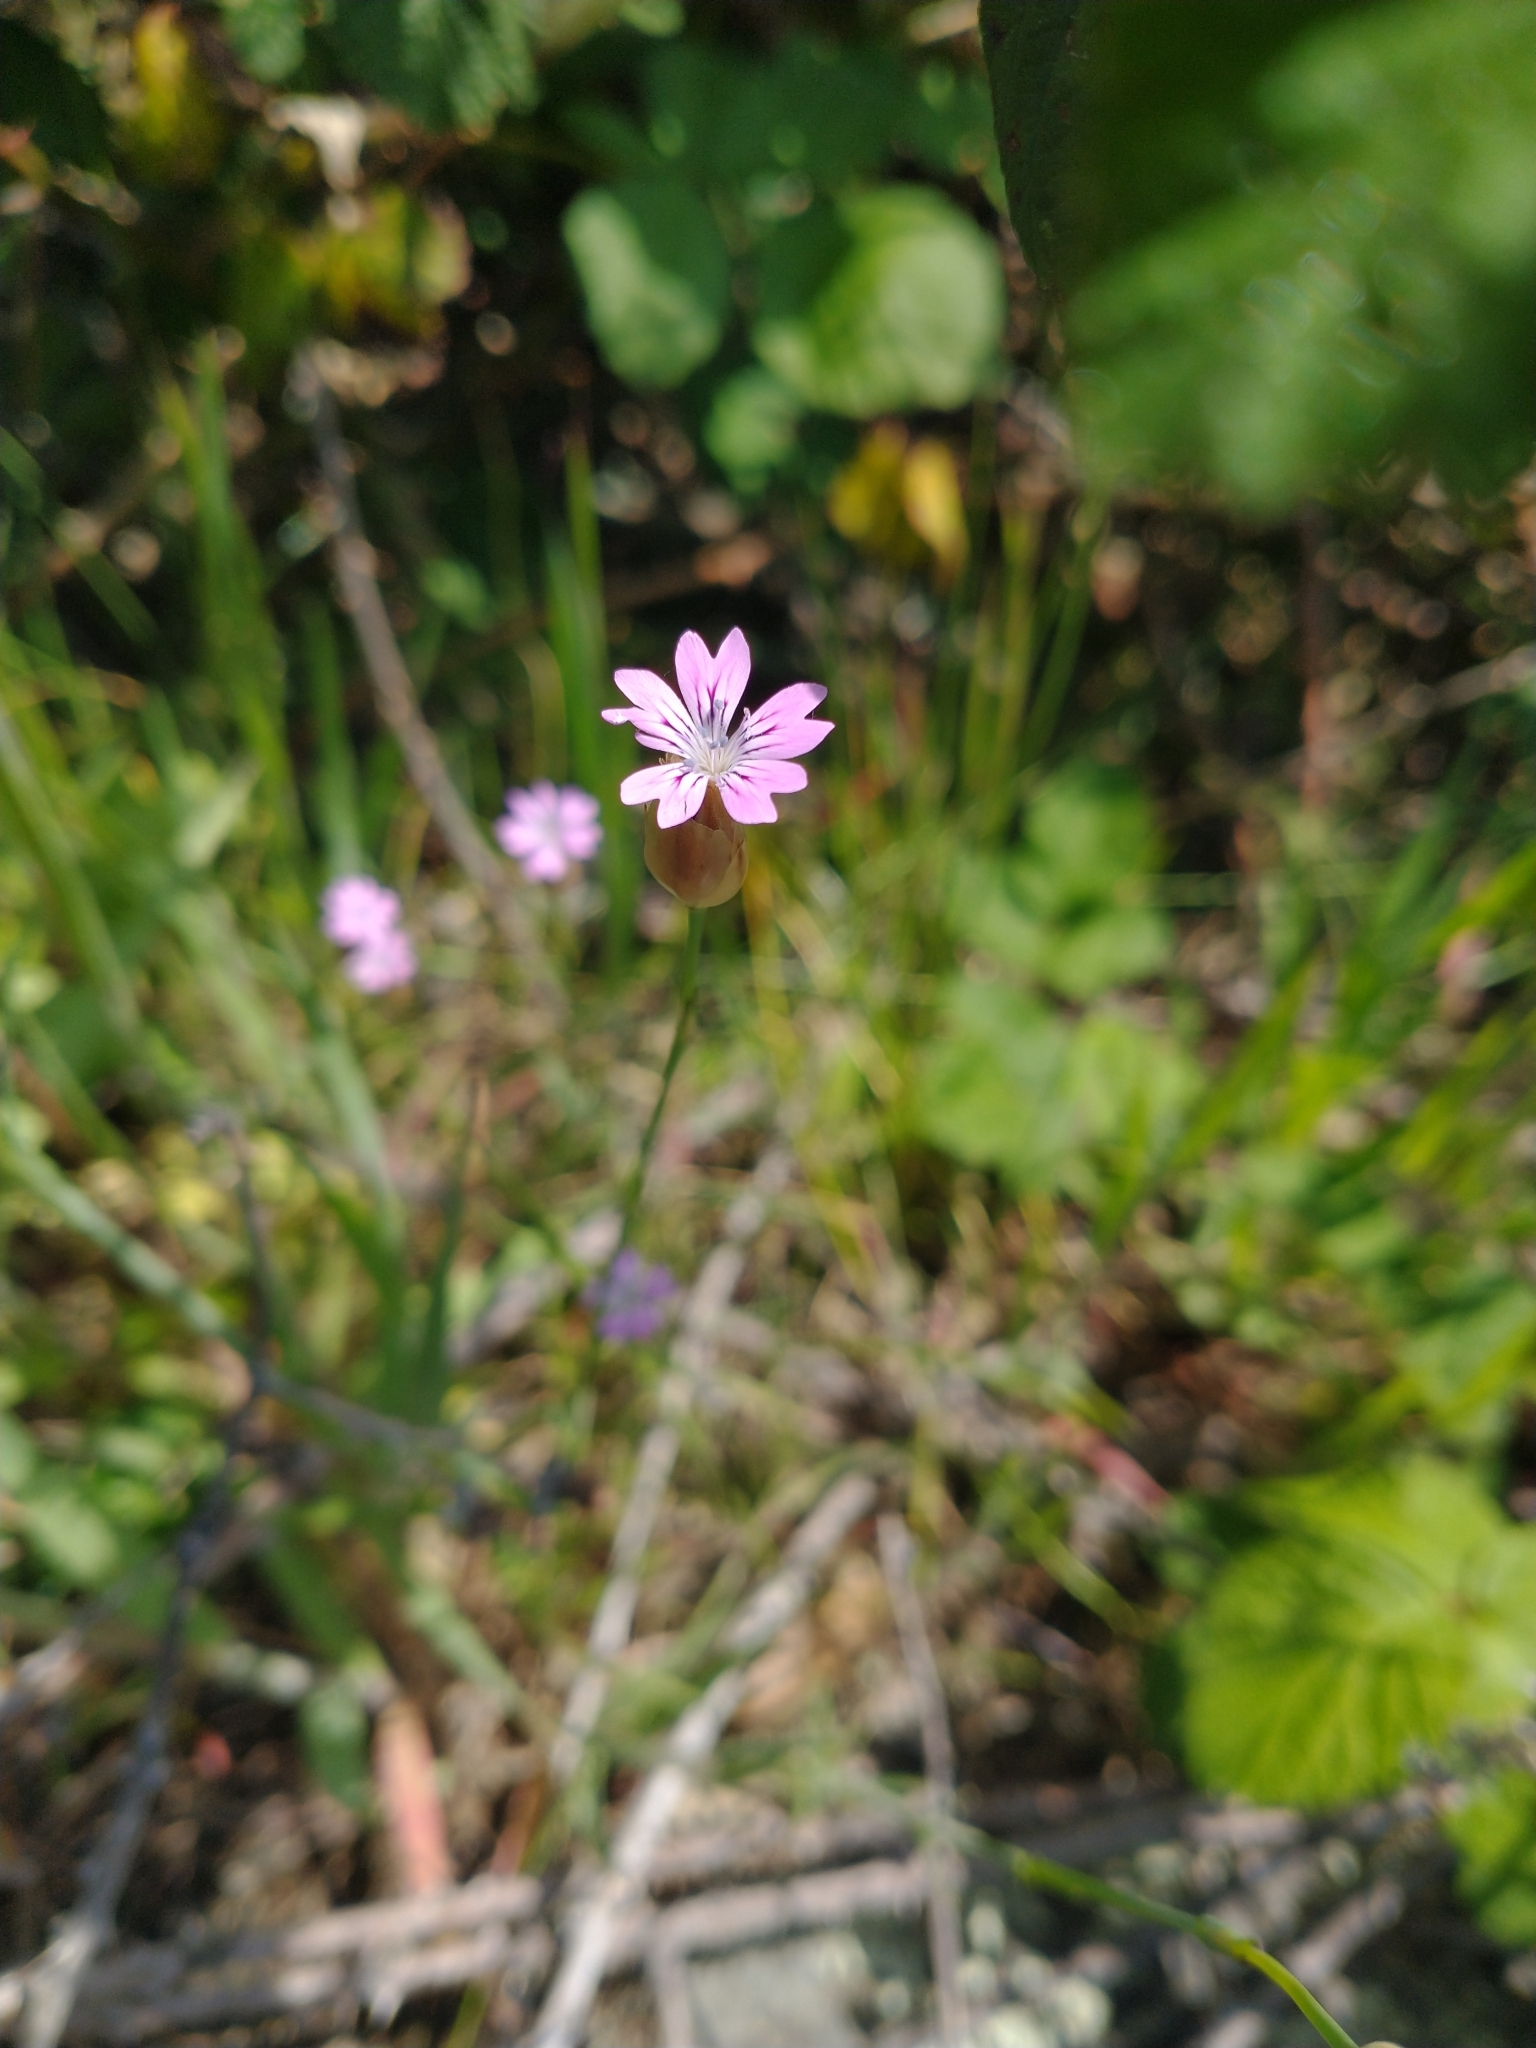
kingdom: Plantae
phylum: Tracheophyta
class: Magnoliopsida
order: Caryophyllales
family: Caryophyllaceae
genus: Petrorhagia
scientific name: Petrorhagia dubia
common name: Hairypink
